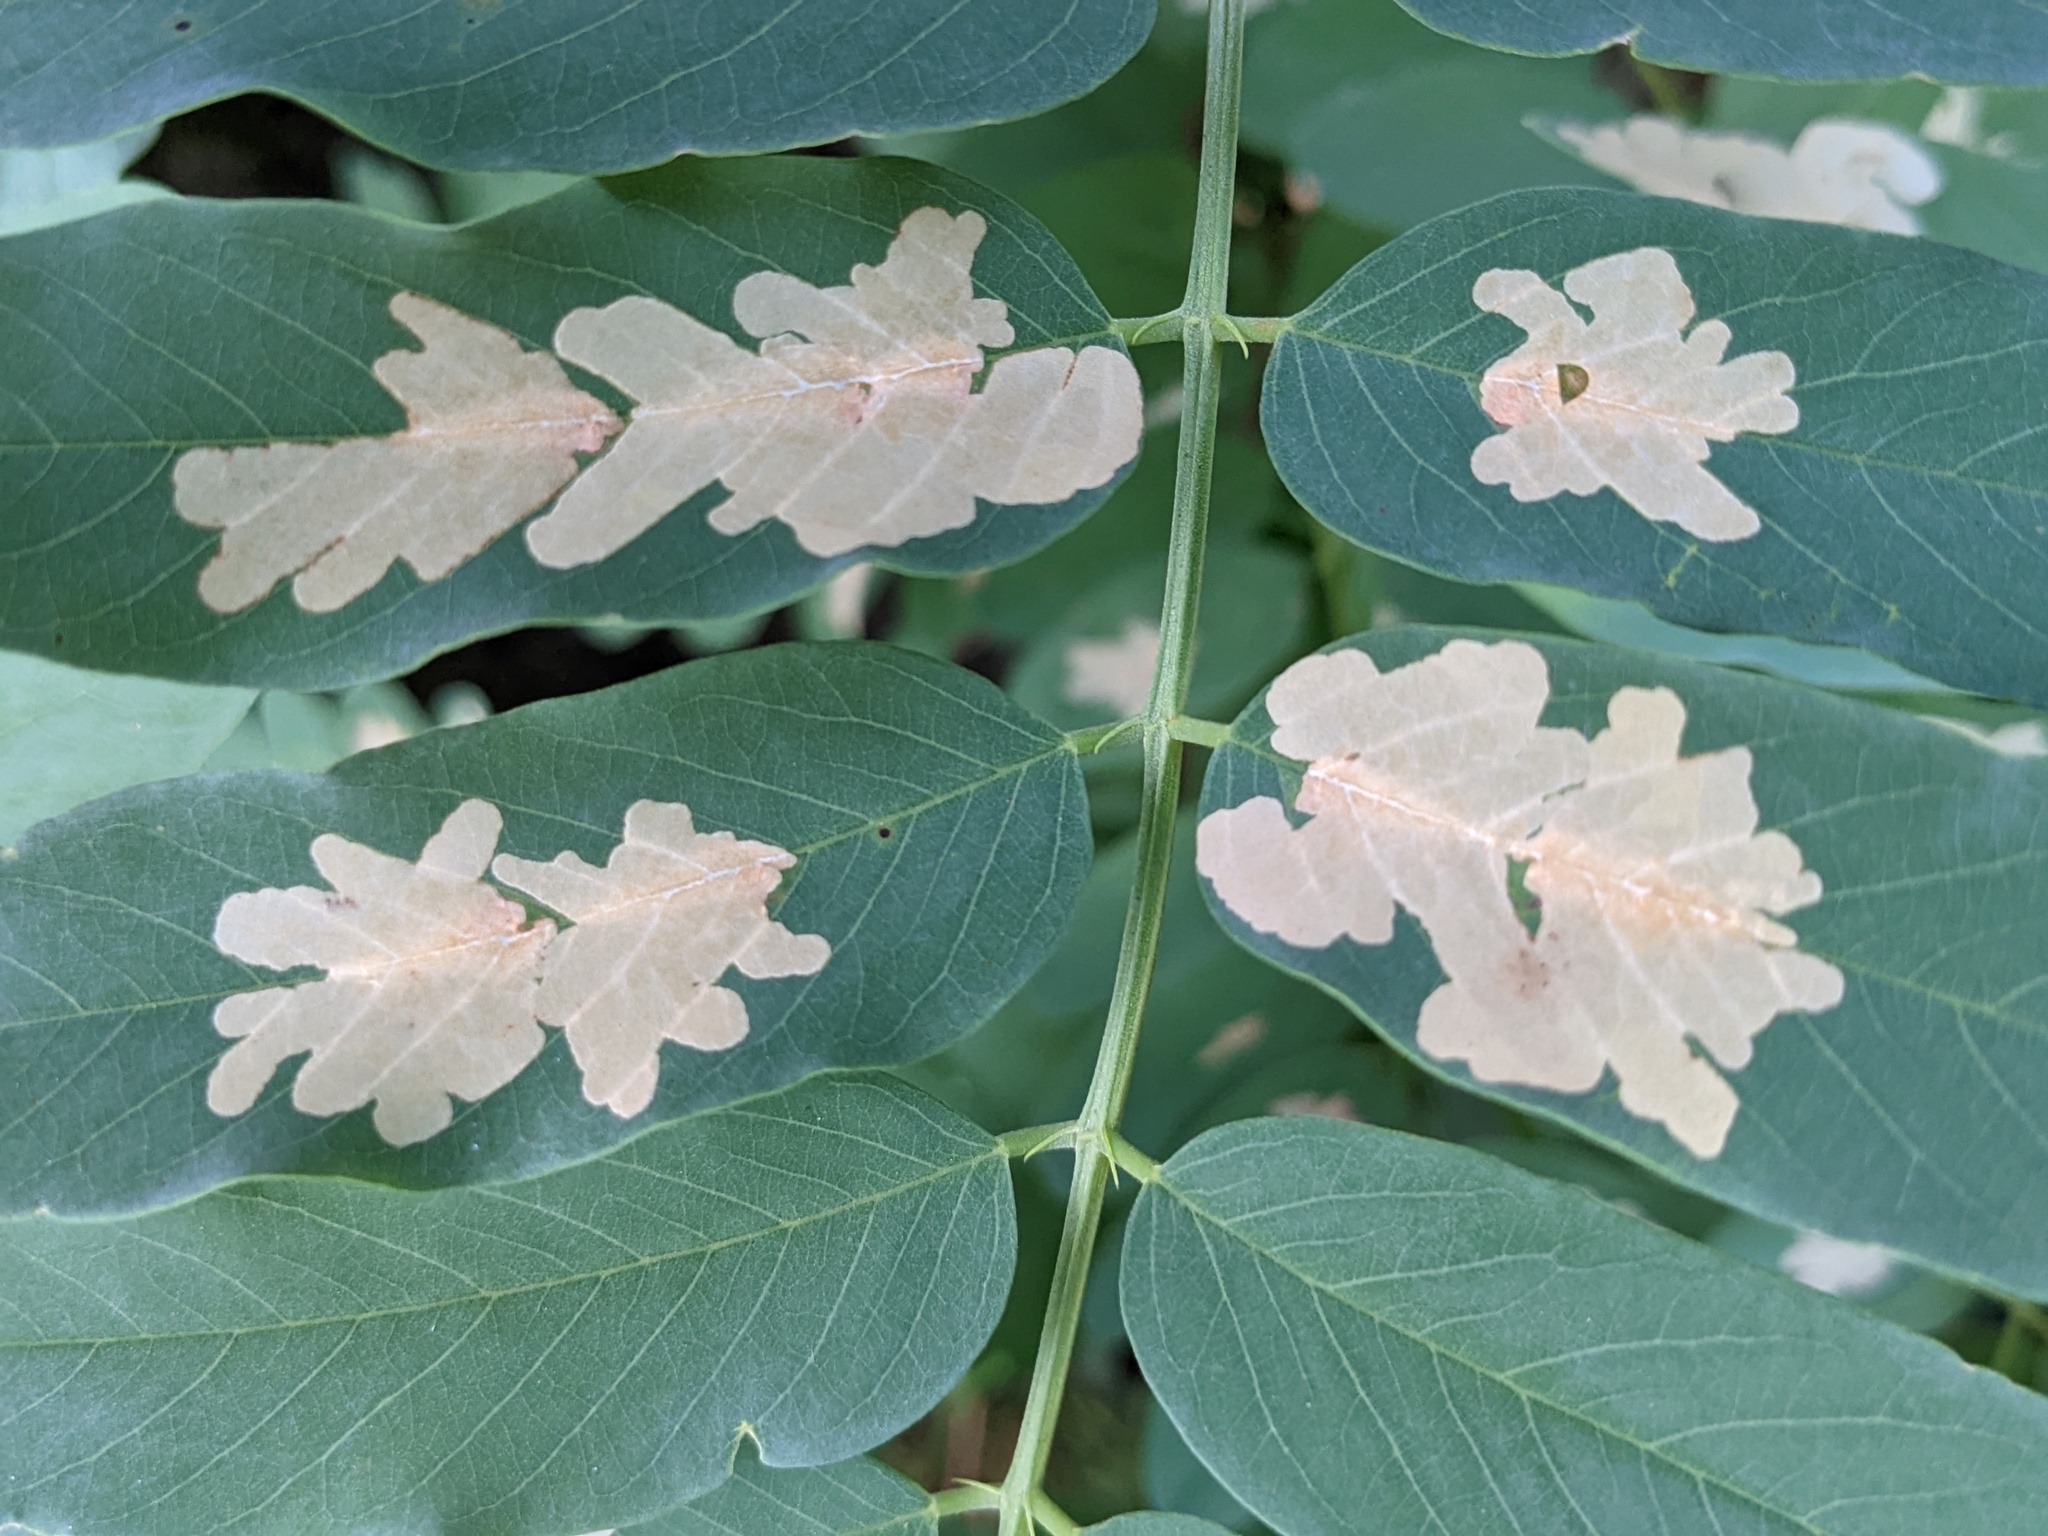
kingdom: Animalia
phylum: Arthropoda
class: Insecta
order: Lepidoptera
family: Gracillariidae
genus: Parectopa
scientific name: Parectopa robiniella
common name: Locust digitate leafminer
